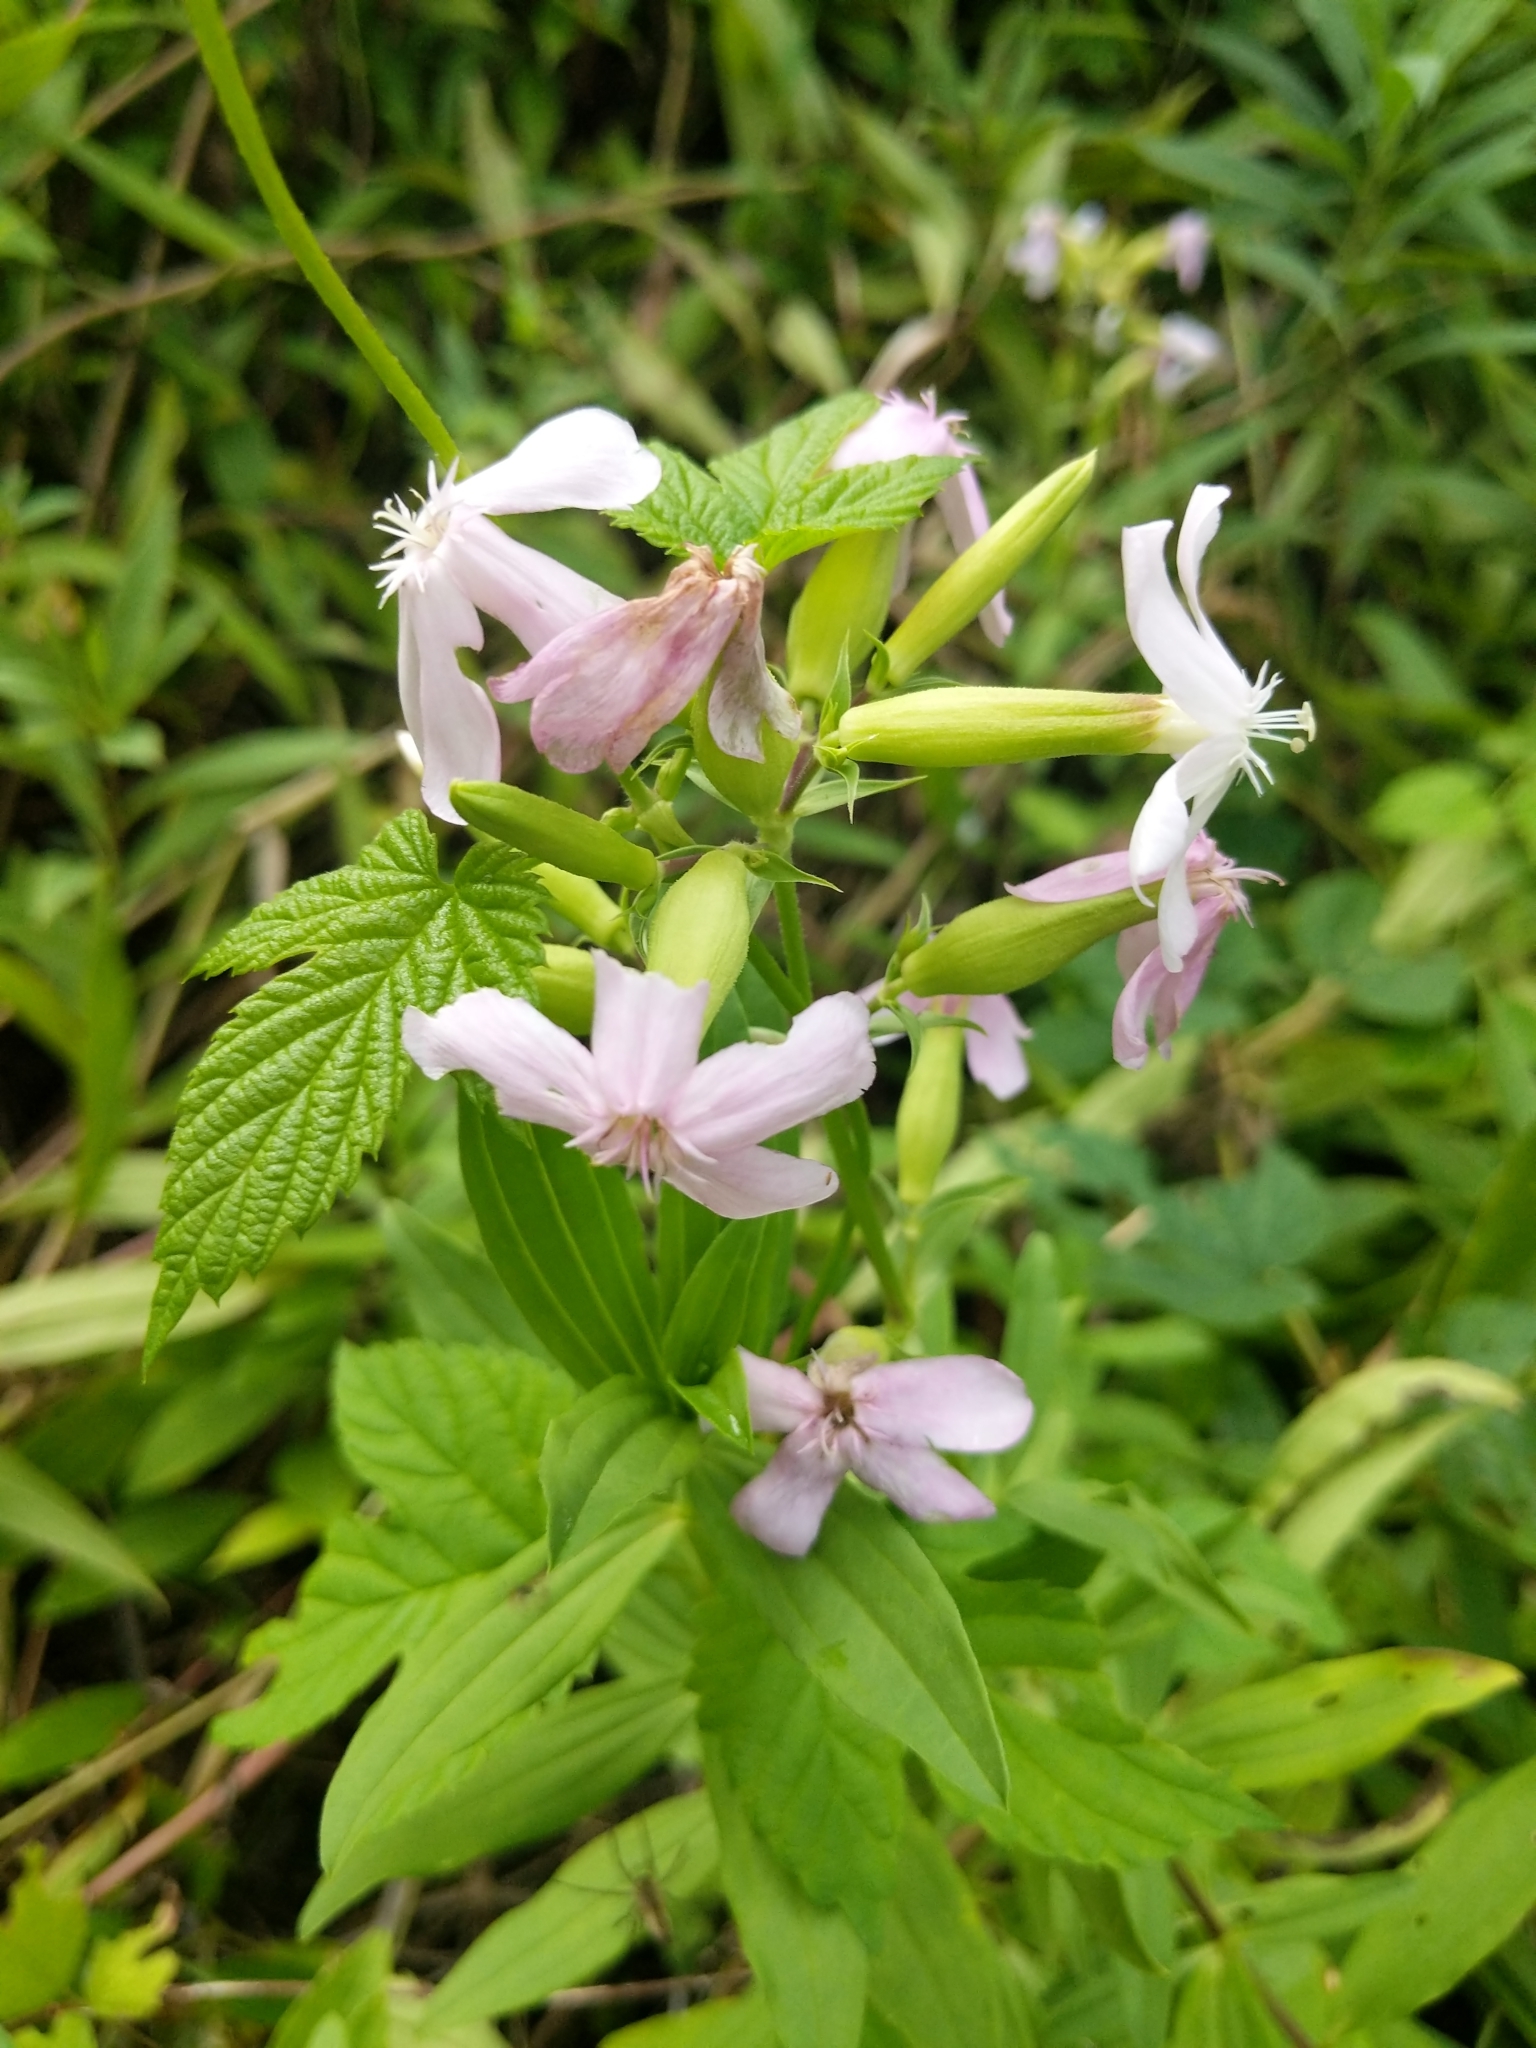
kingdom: Plantae
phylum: Tracheophyta
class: Magnoliopsida
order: Caryophyllales
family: Caryophyllaceae
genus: Saponaria
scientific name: Saponaria officinalis
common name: Soapwort
